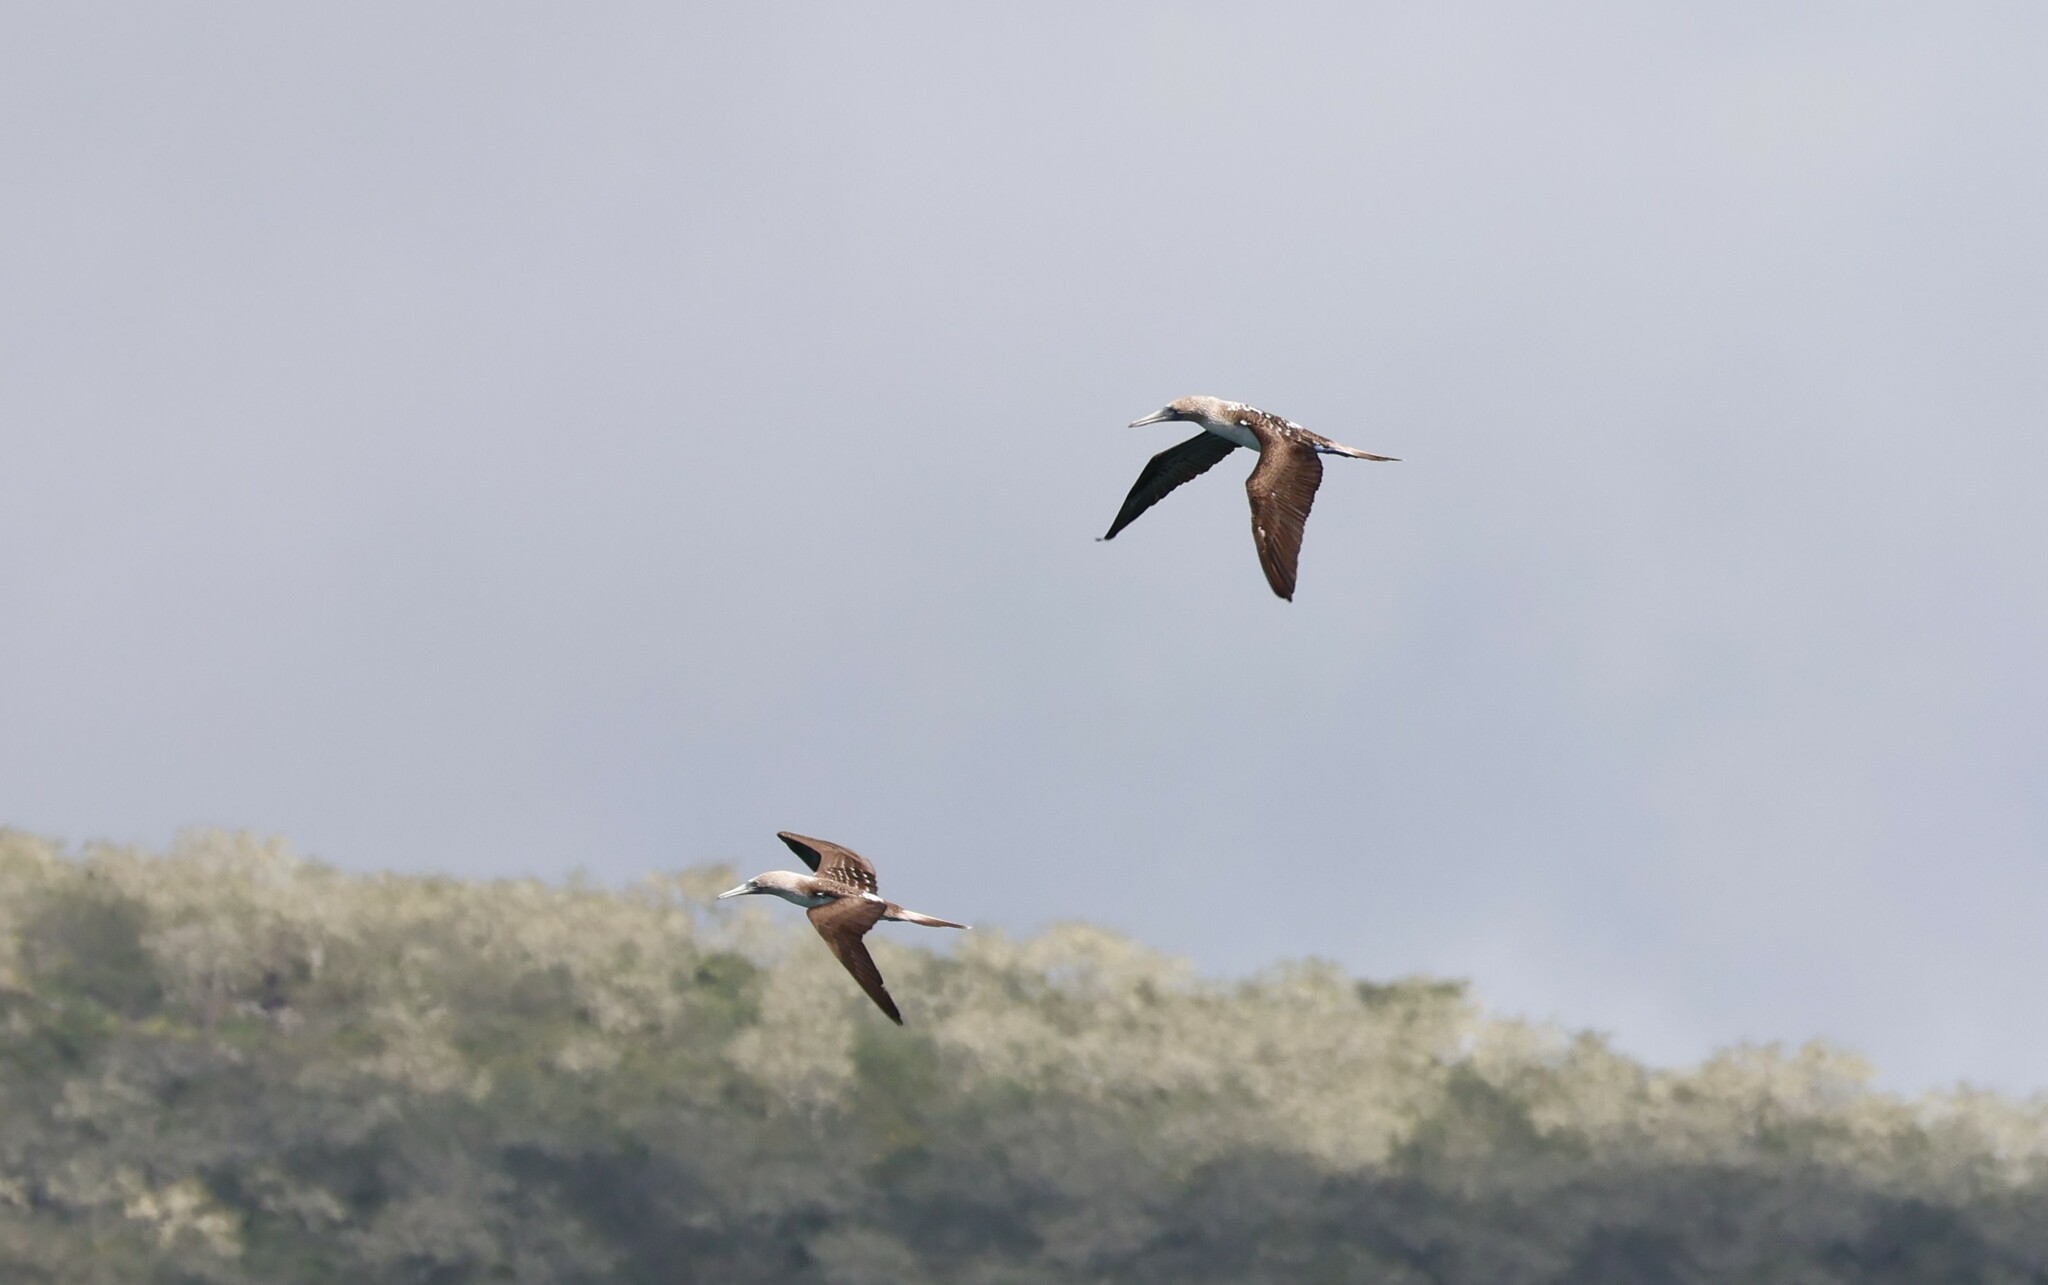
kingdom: Animalia
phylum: Chordata
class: Aves
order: Suliformes
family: Sulidae
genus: Sula
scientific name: Sula nebouxii
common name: Blue-footed booby
